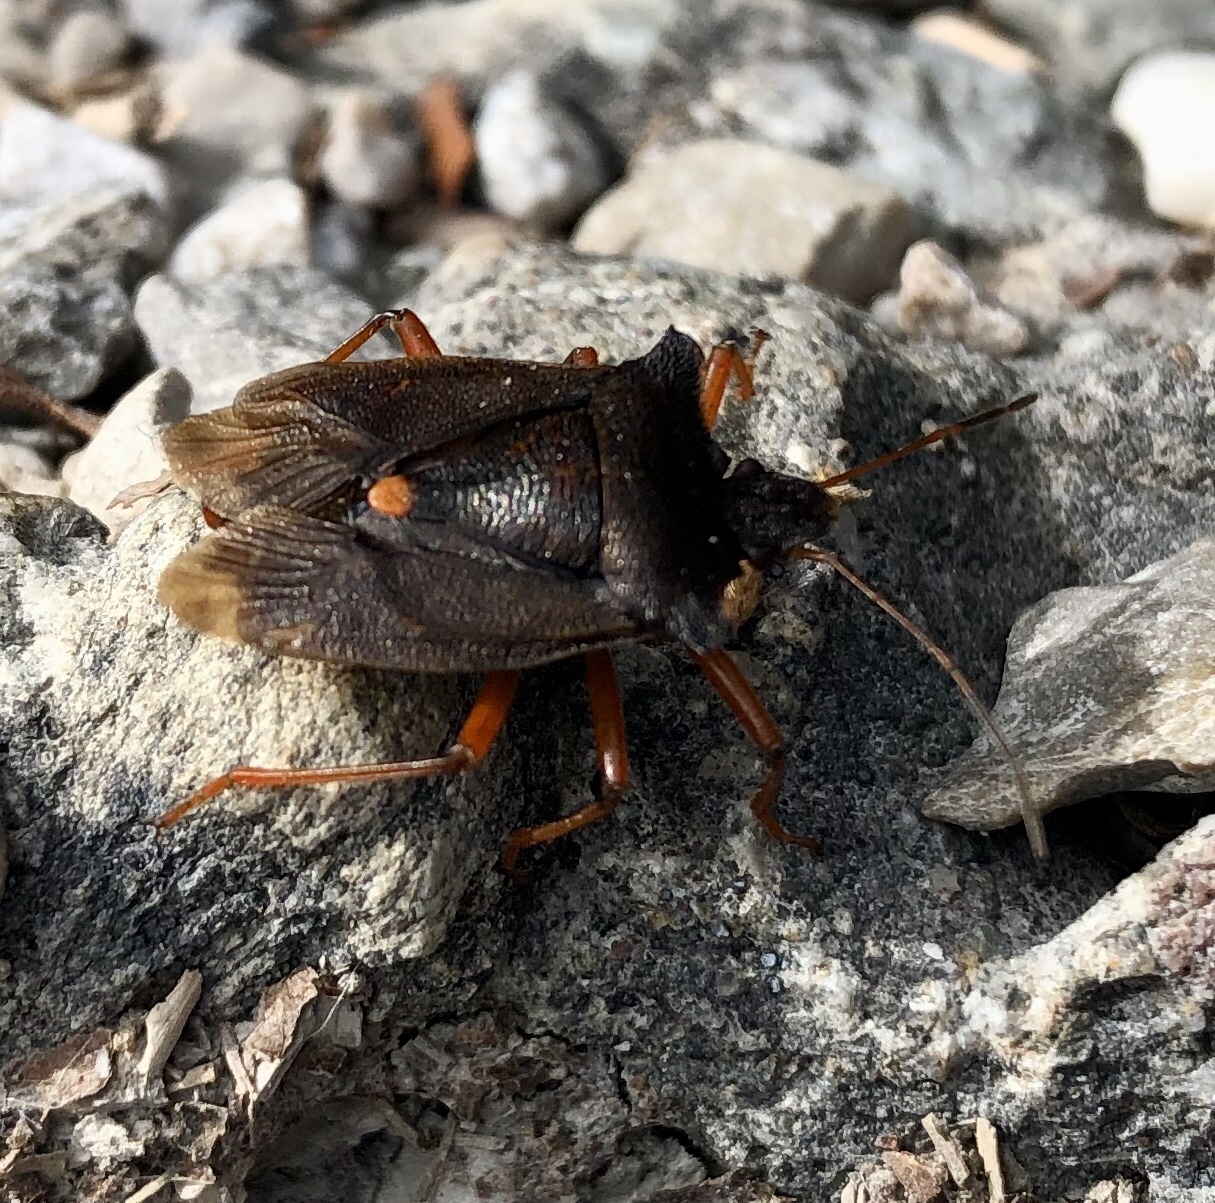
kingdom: Animalia
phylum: Arthropoda
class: Insecta
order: Hemiptera
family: Pentatomidae
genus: Pentatoma
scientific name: Pentatoma rufipes
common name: Forest bug
